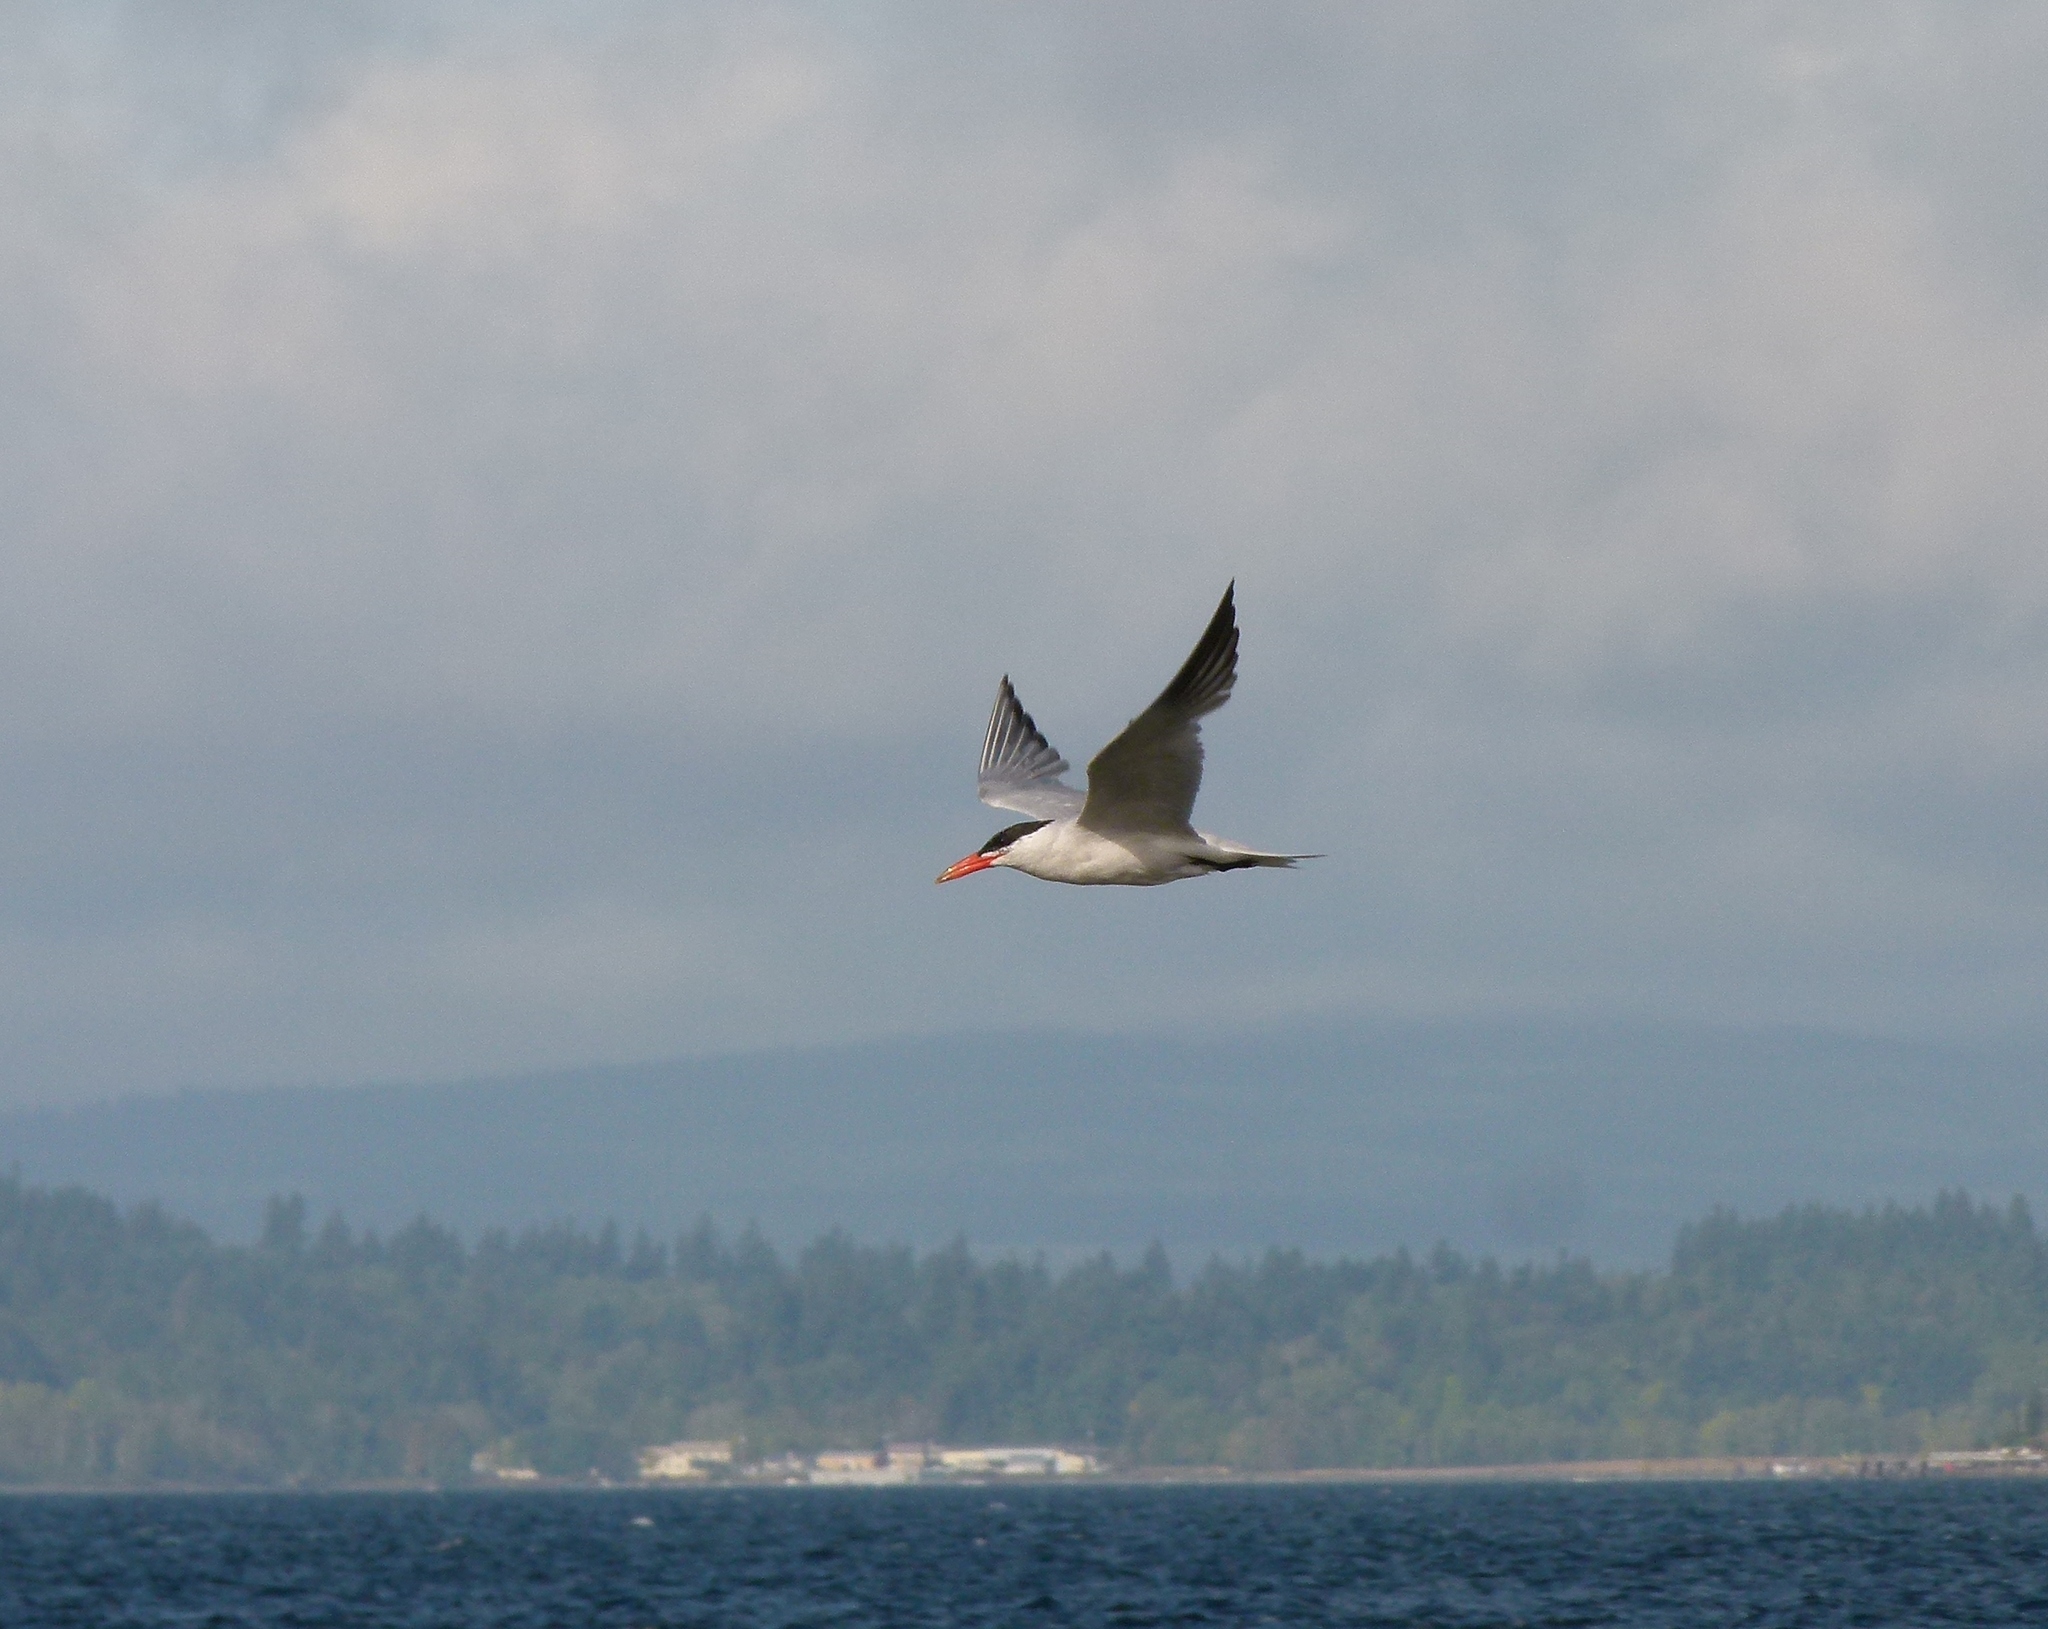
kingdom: Animalia
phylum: Chordata
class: Aves
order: Charadriiformes
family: Laridae
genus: Hydroprogne
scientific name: Hydroprogne caspia
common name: Caspian tern
